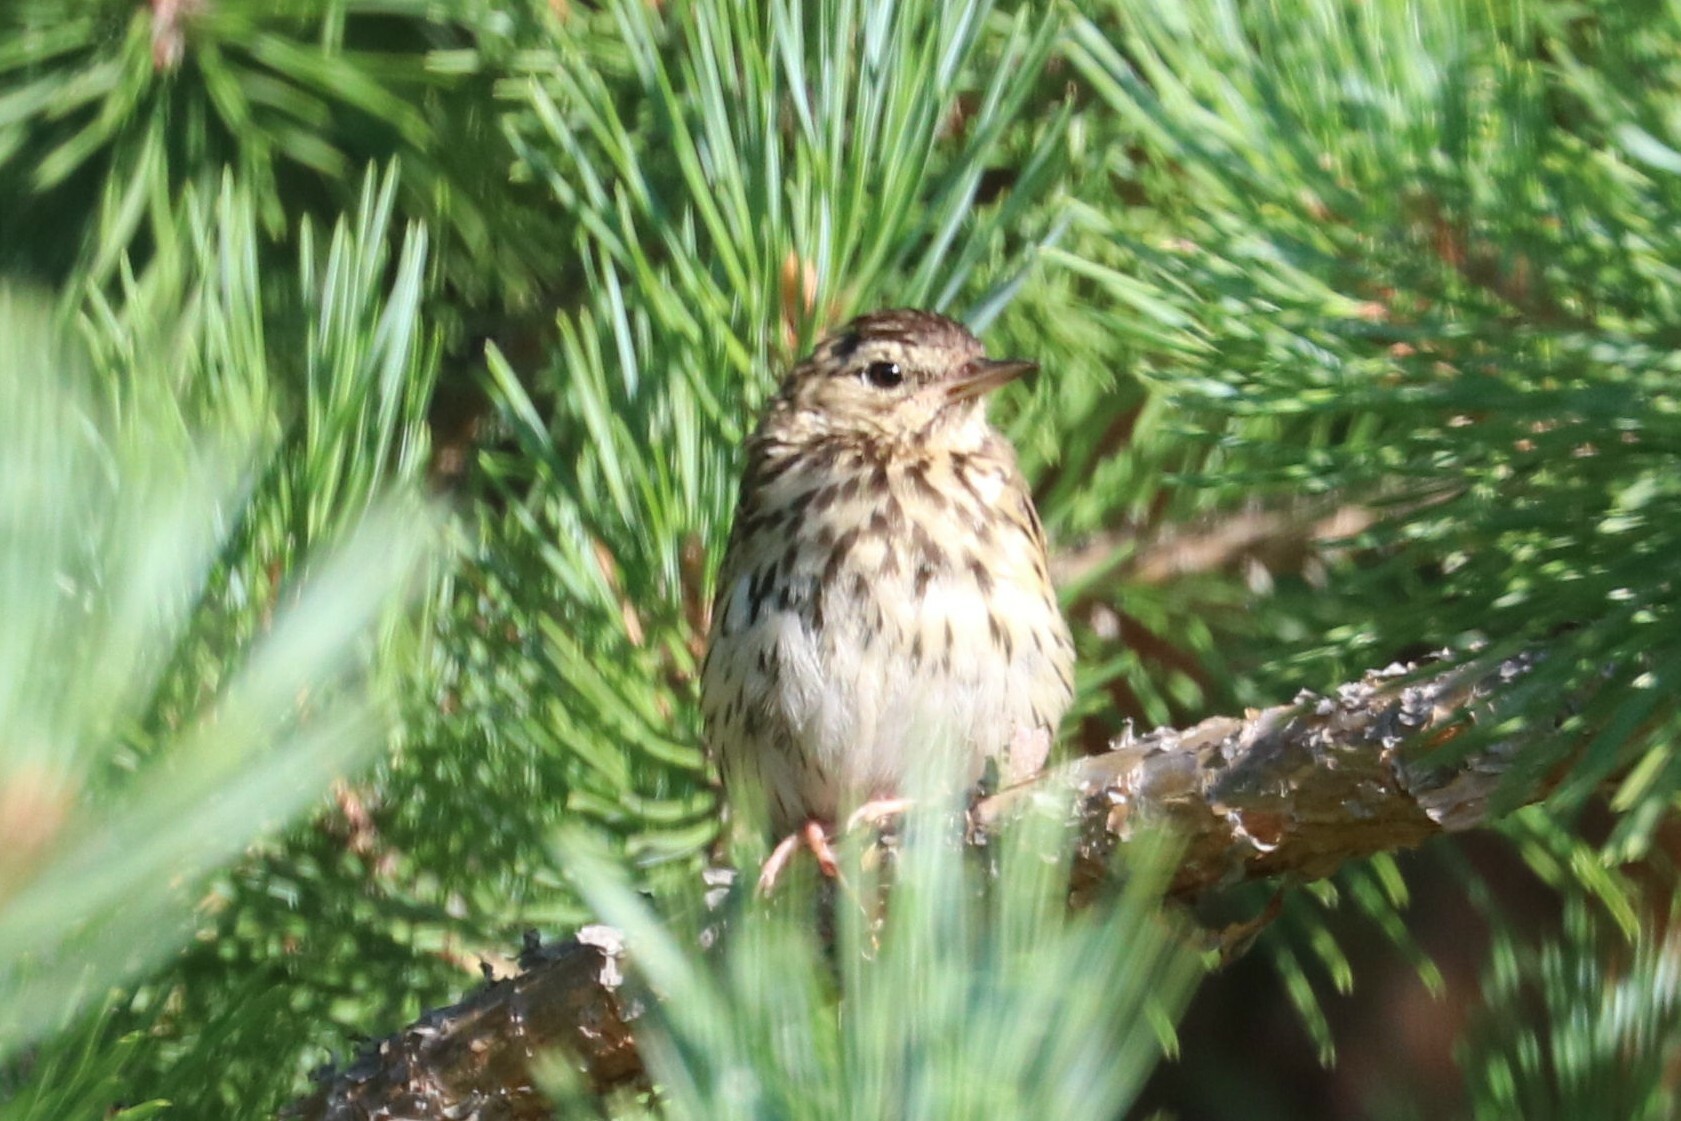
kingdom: Animalia
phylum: Chordata
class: Aves
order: Passeriformes
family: Motacillidae
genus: Anthus
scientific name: Anthus trivialis
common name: Tree pipit
